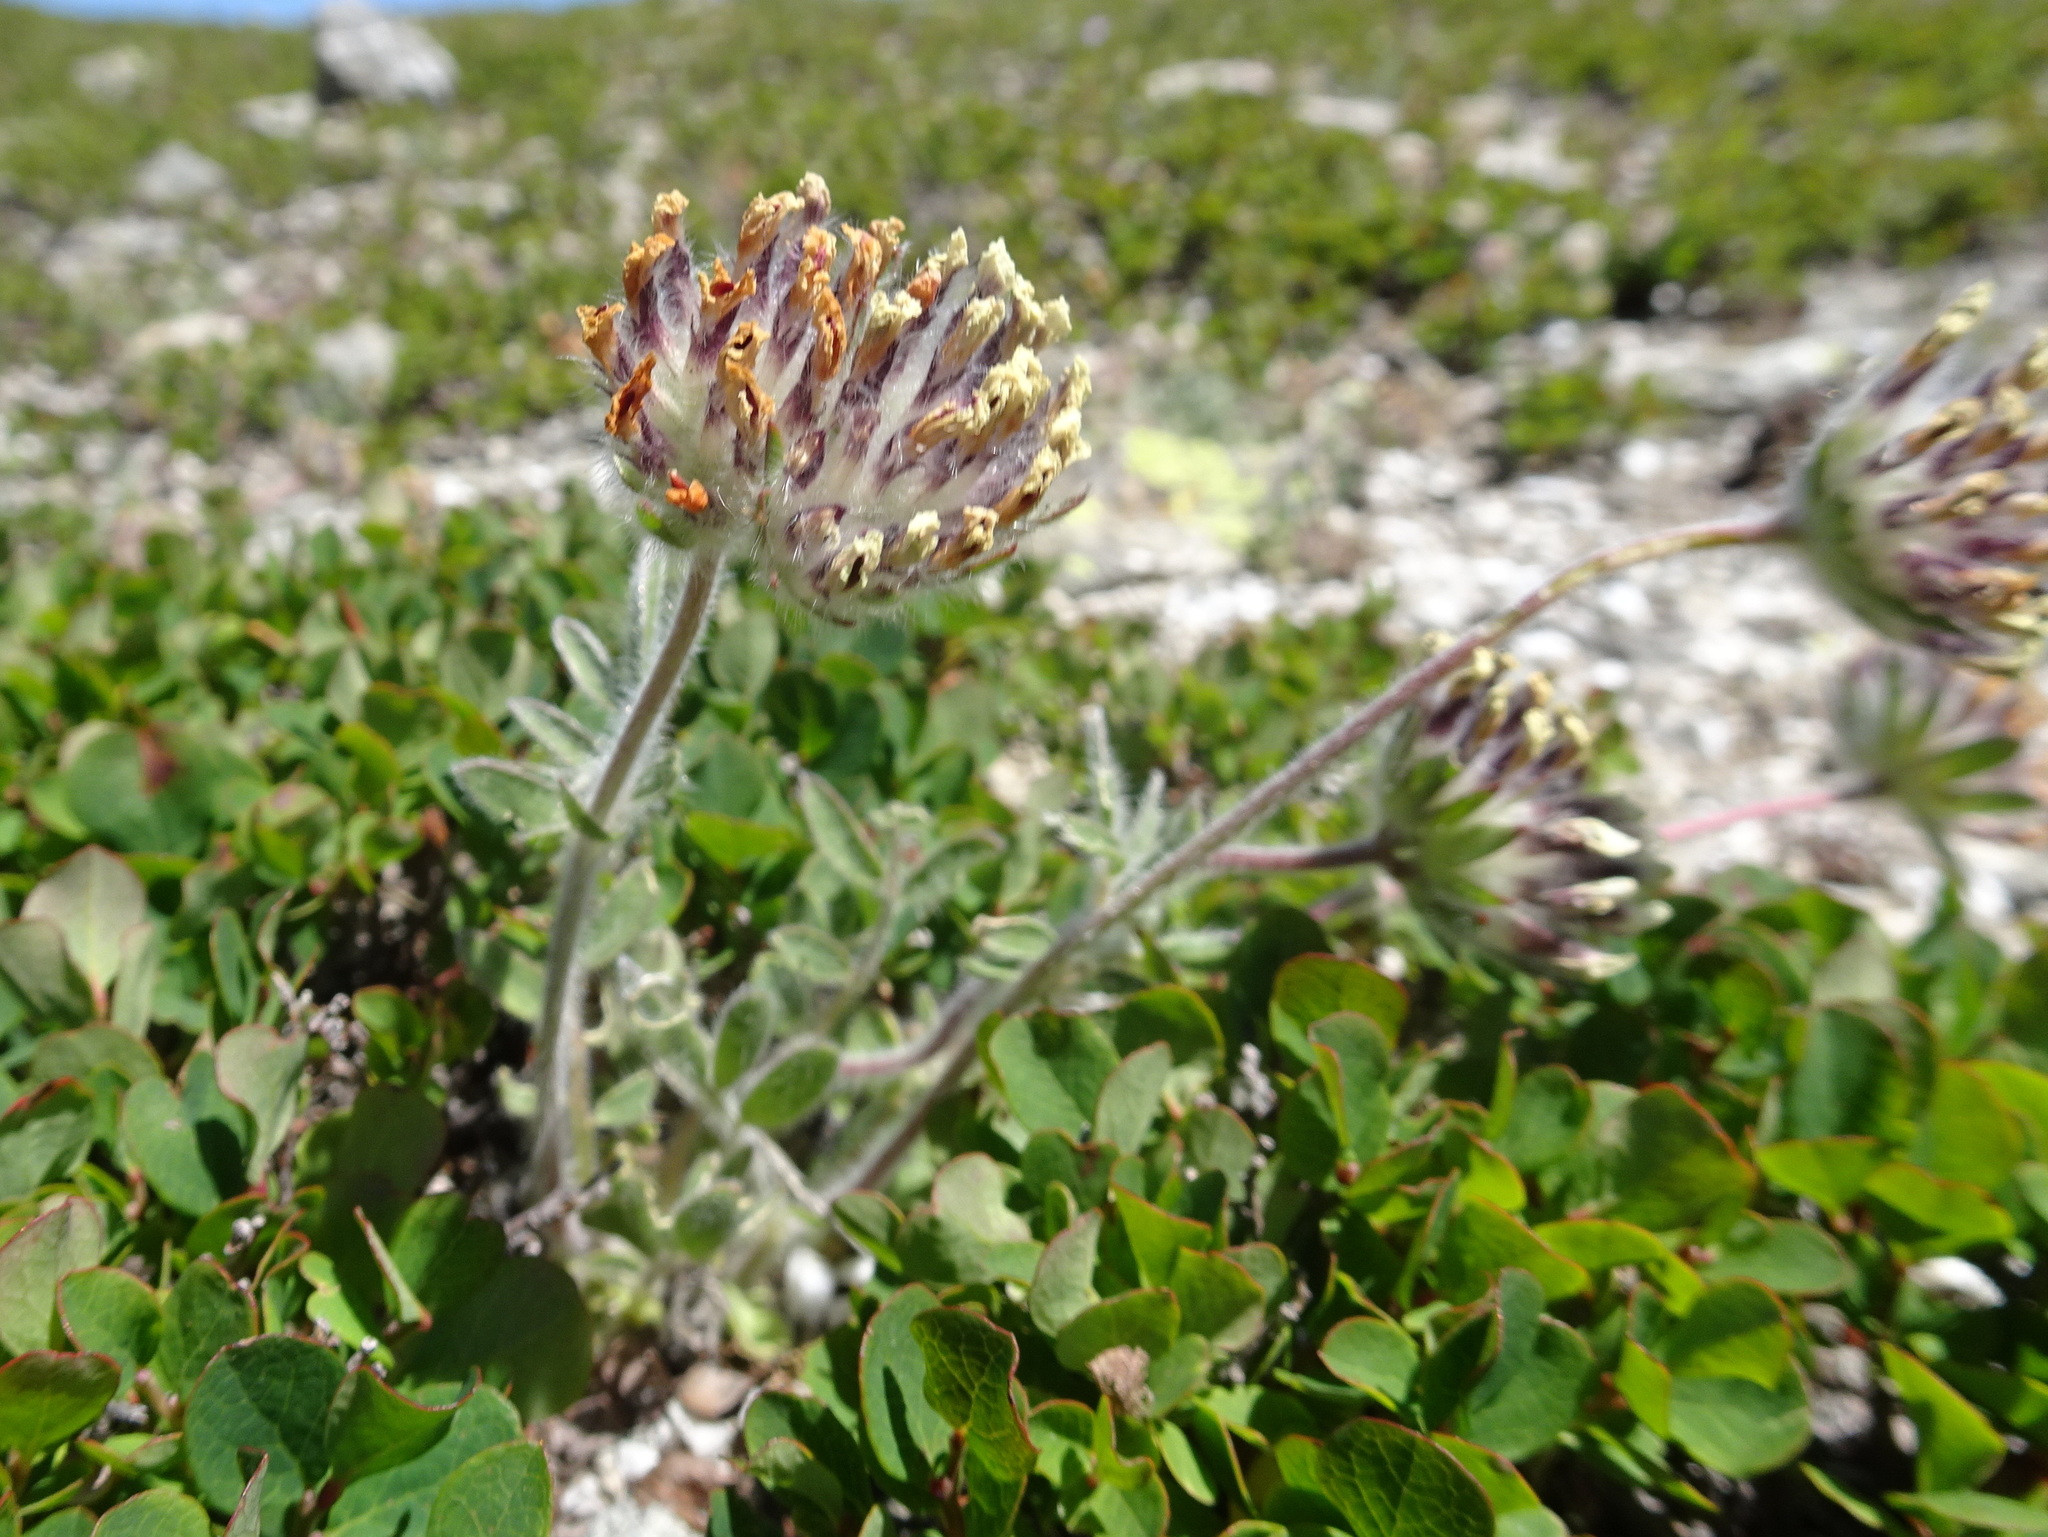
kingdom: Plantae
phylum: Tracheophyta
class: Magnoliopsida
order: Fabales
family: Fabaceae
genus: Anthyllis
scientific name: Anthyllis vulneraria
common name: Kidney vetch
